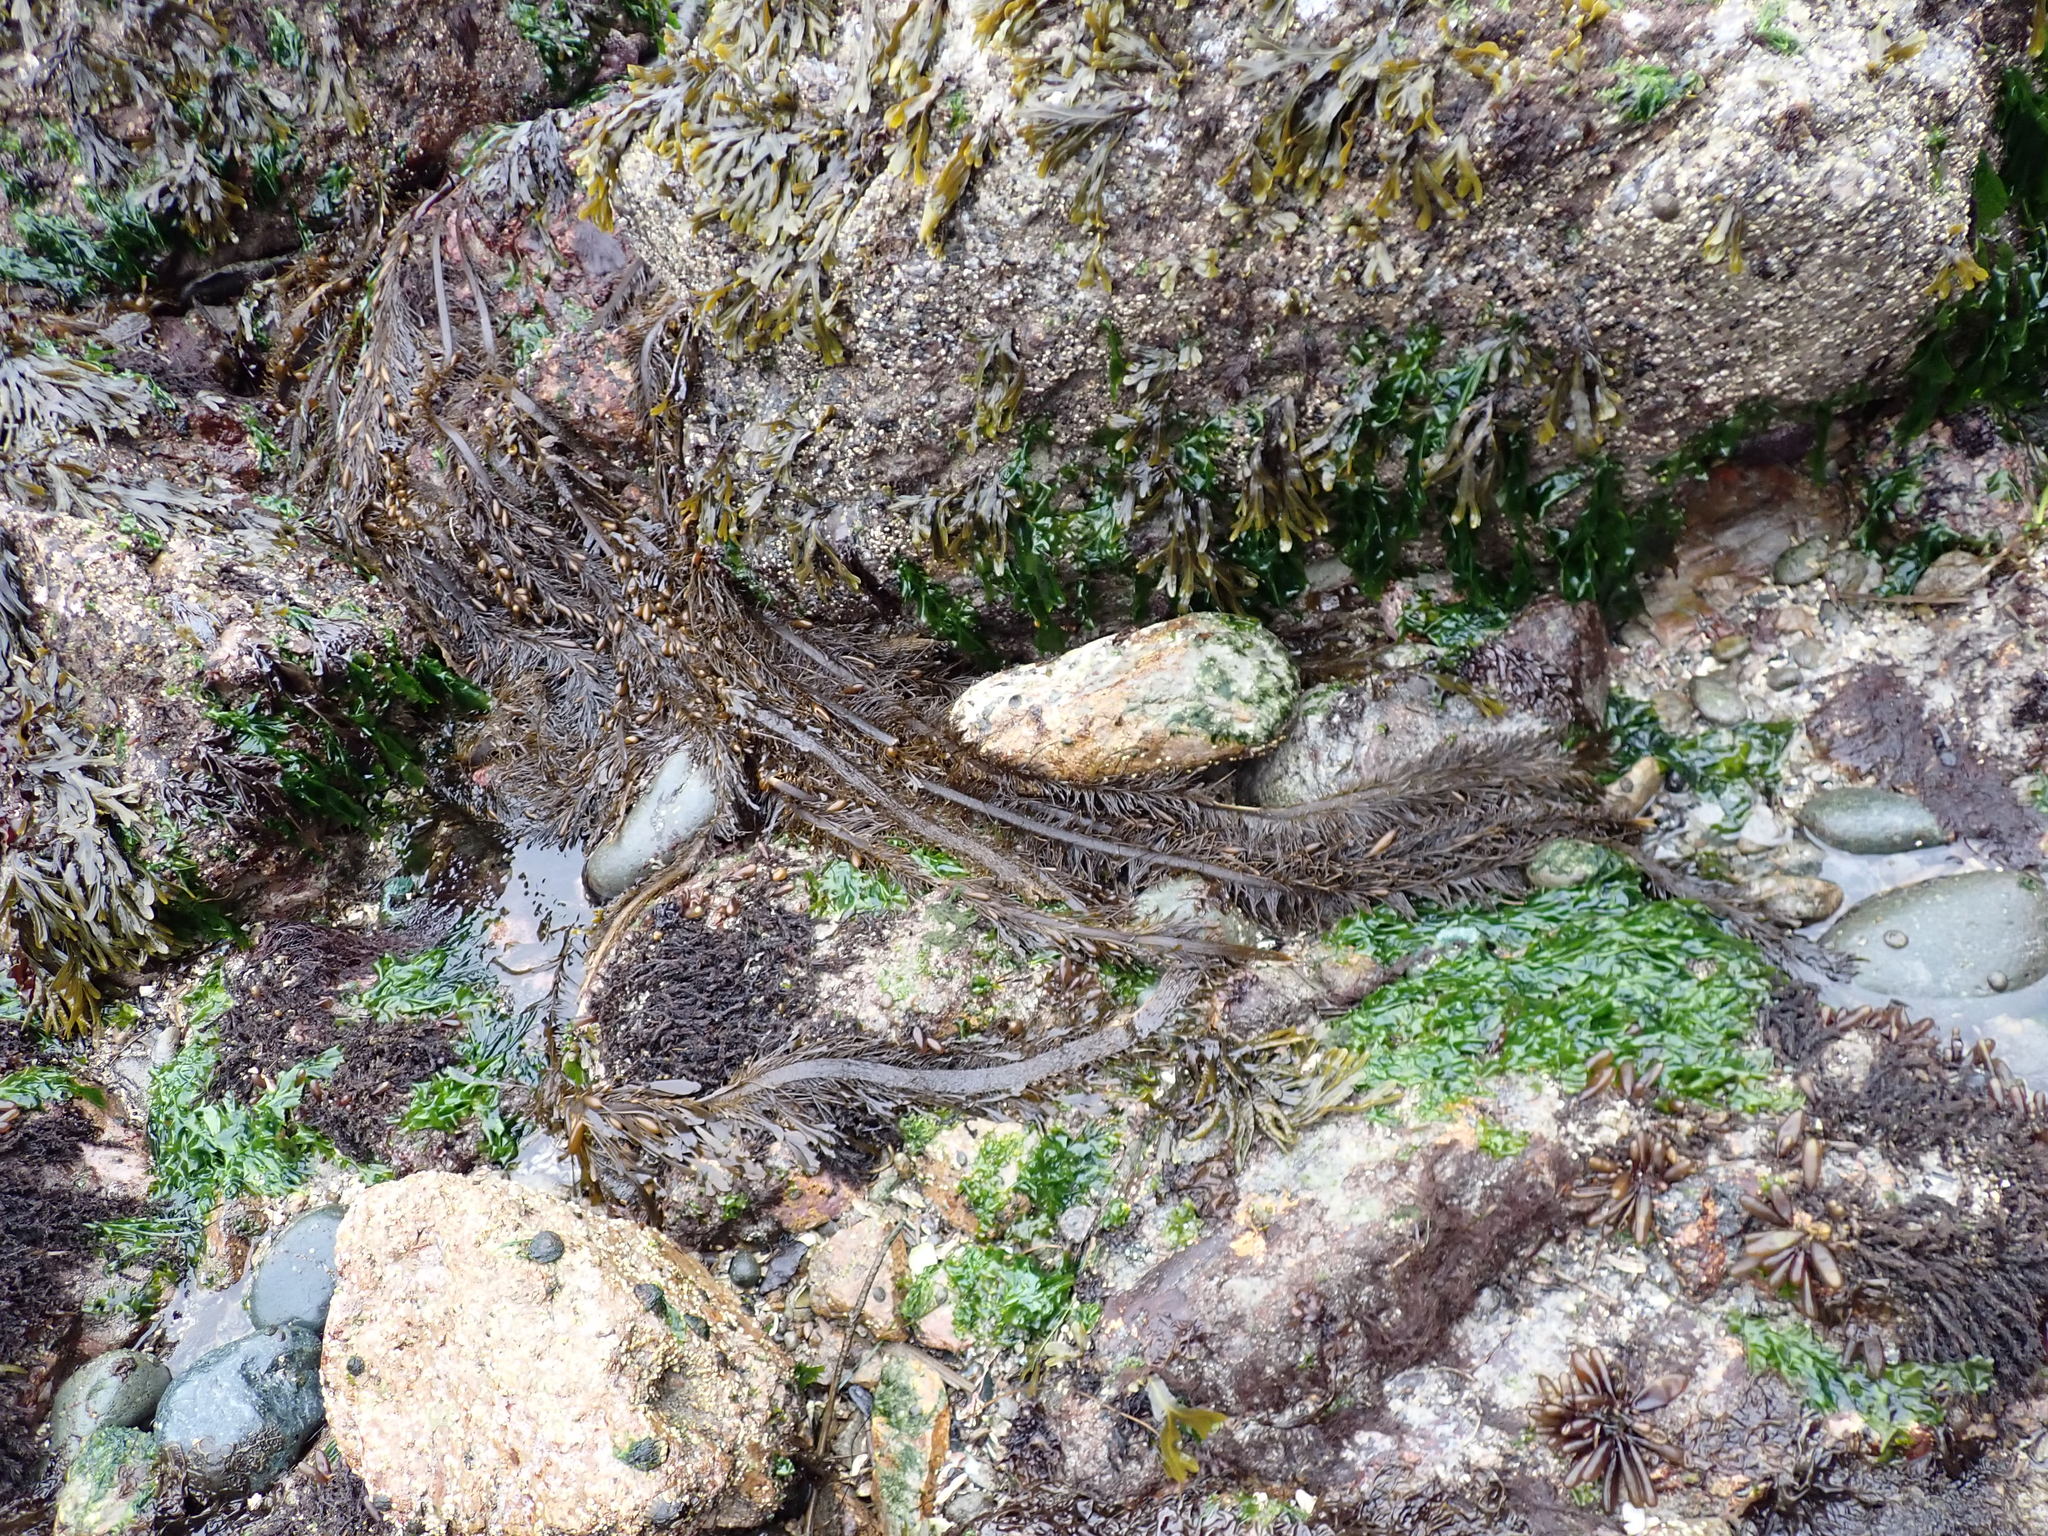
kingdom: Chromista
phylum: Ochrophyta
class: Phaeophyceae
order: Laminariales
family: Lessoniaceae
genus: Egregia
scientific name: Egregia menziesii
